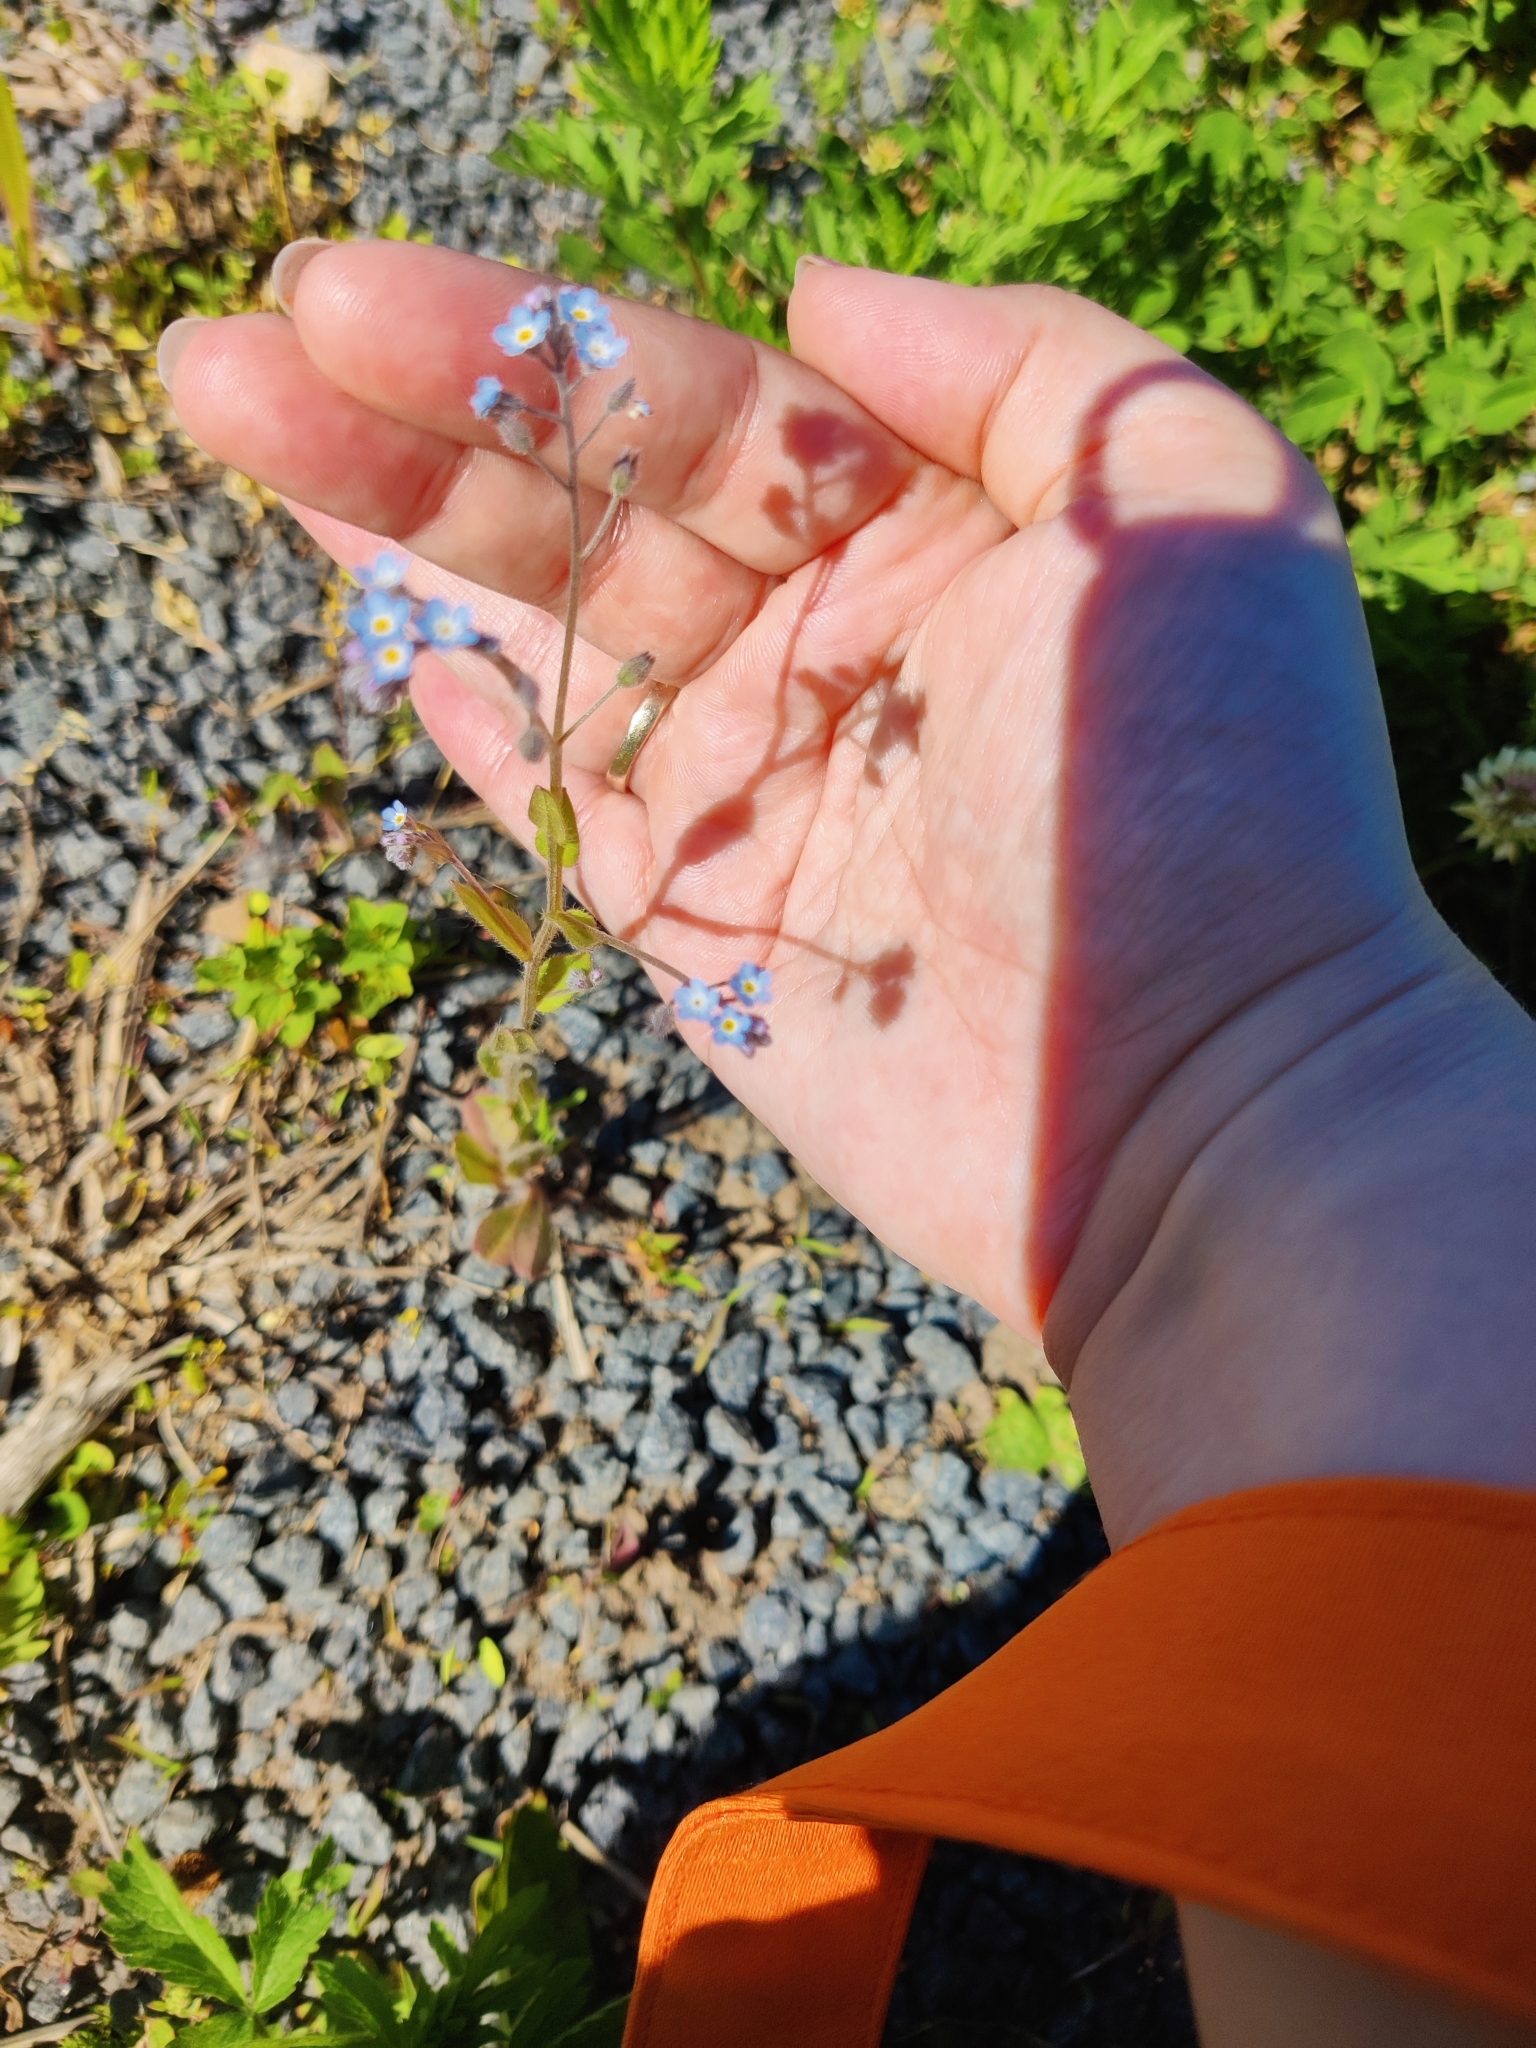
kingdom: Plantae
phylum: Tracheophyta
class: Magnoliopsida
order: Boraginales
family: Boraginaceae
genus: Myosotis
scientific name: Myosotis arvensis
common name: Field forget-me-not
